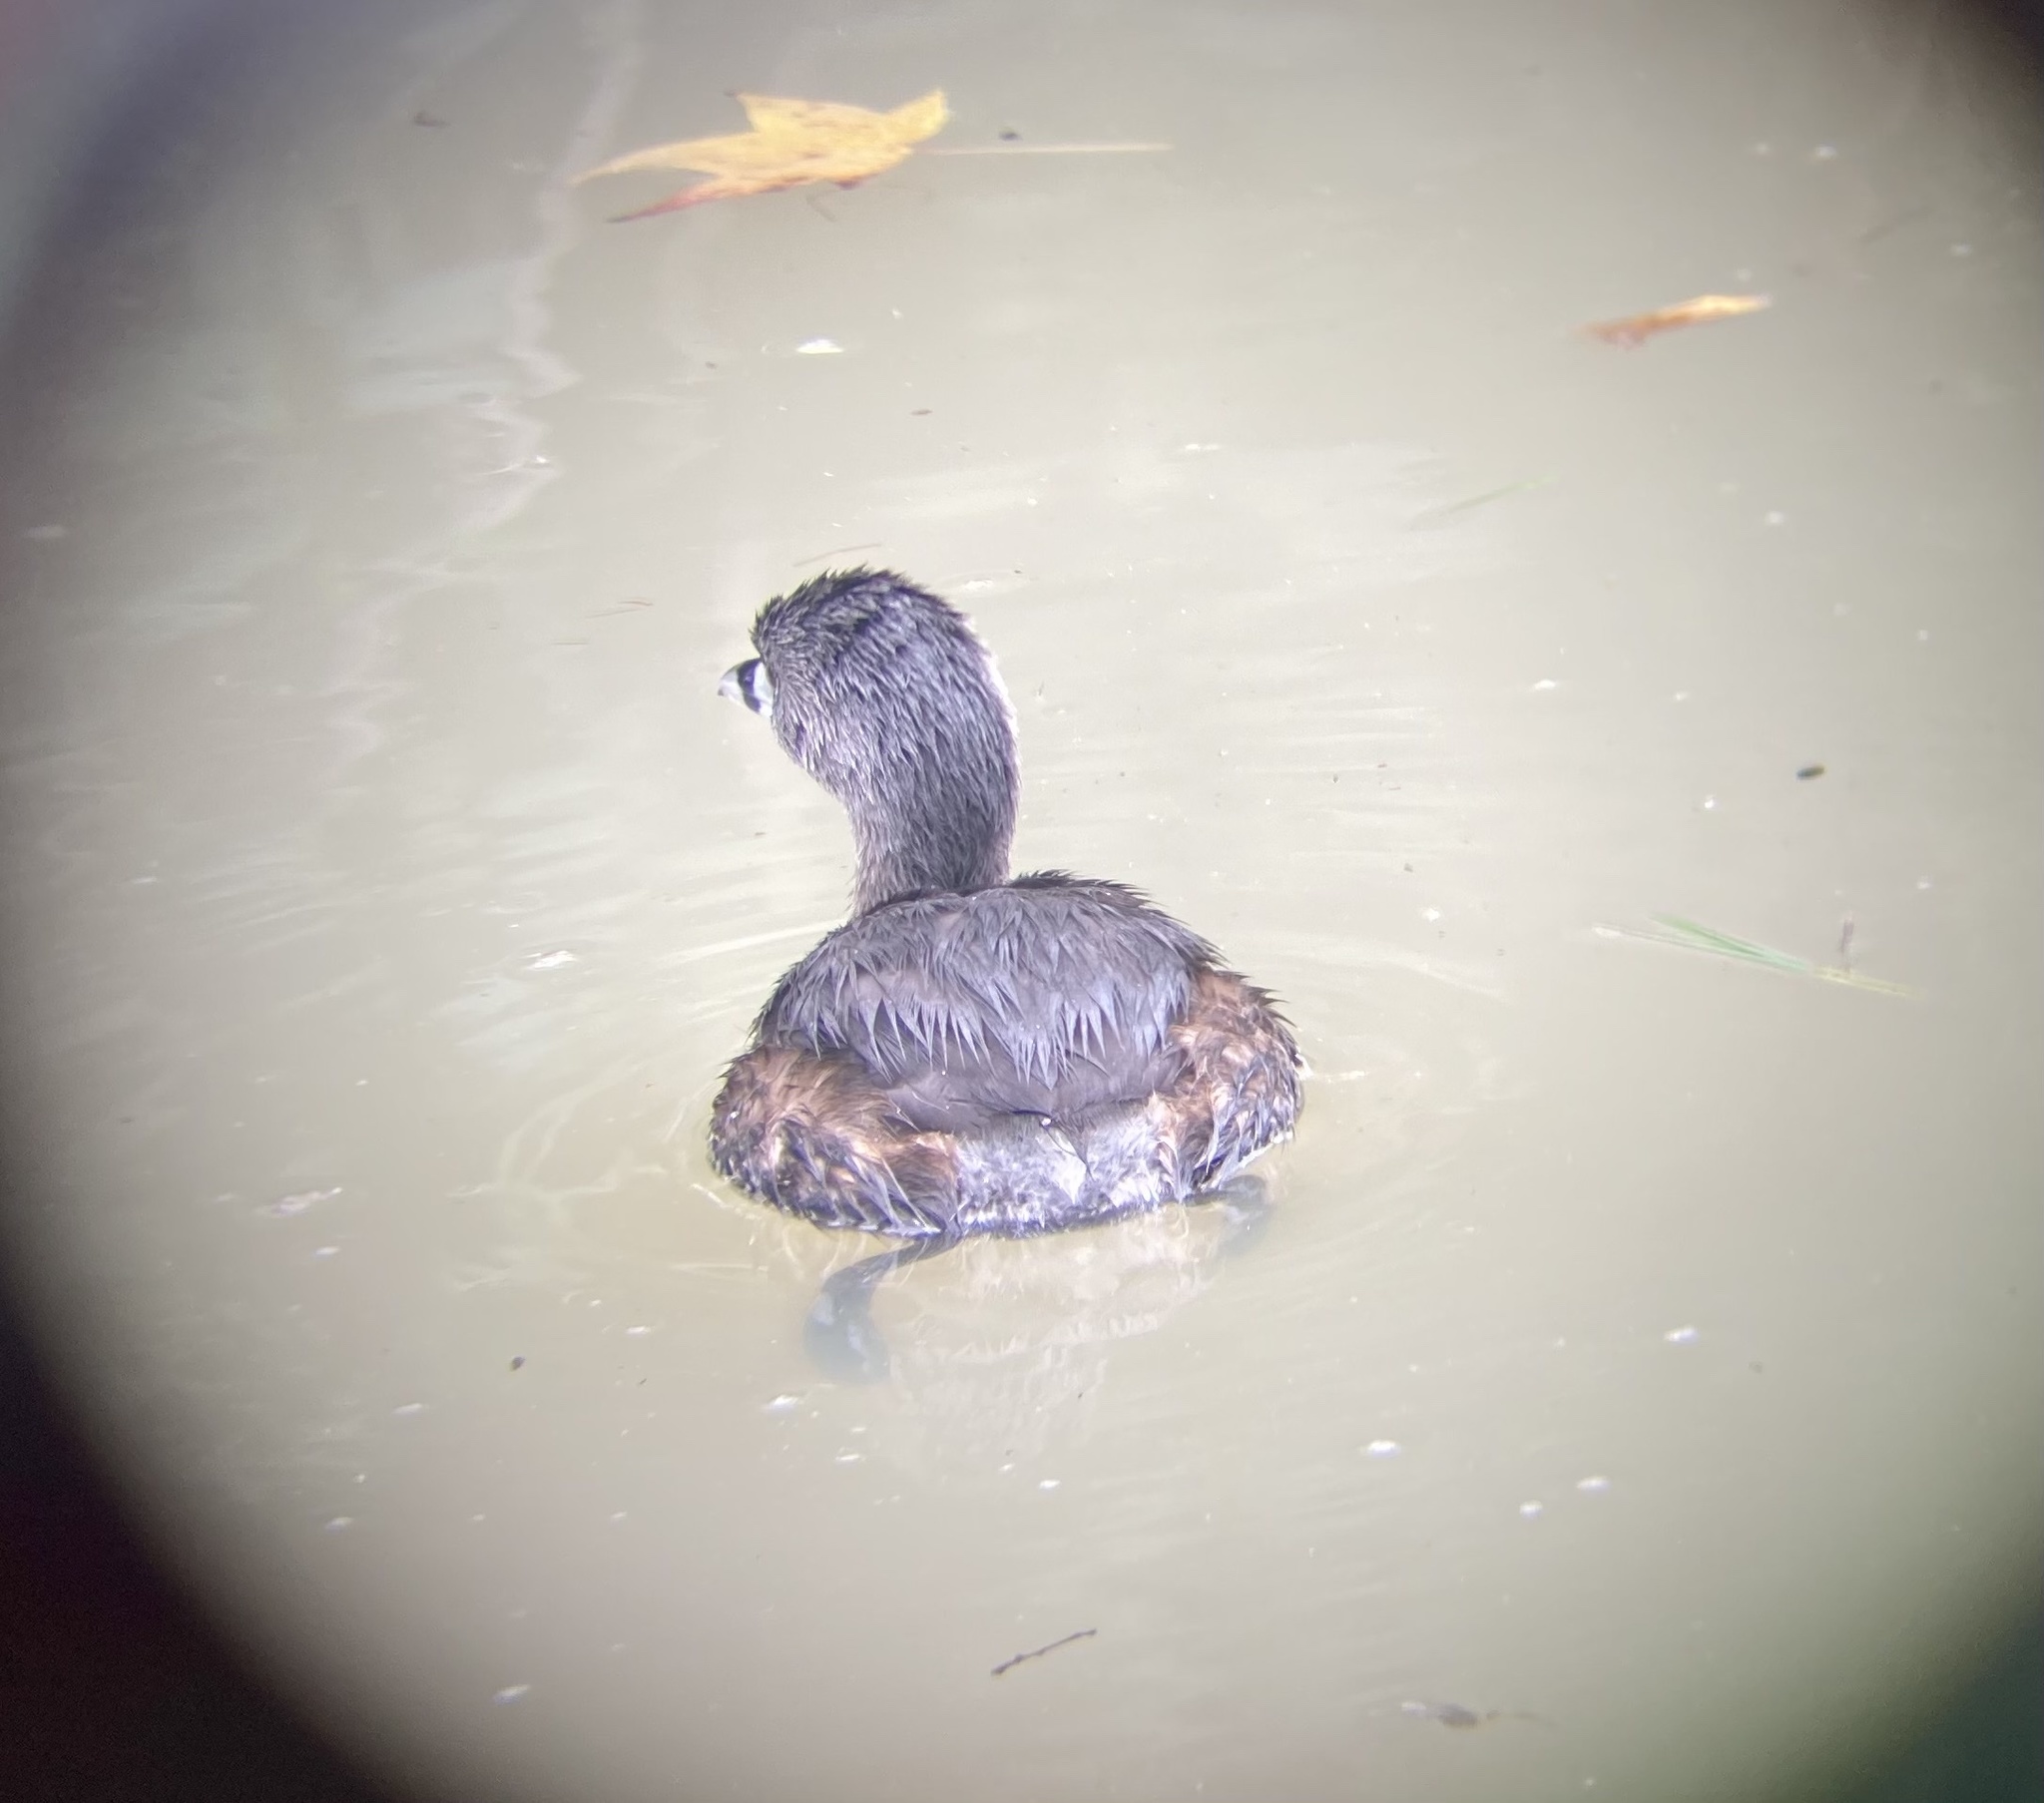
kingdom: Animalia
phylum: Chordata
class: Aves
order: Podicipediformes
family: Podicipedidae
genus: Podilymbus
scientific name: Podilymbus podiceps
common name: Pied-billed grebe
